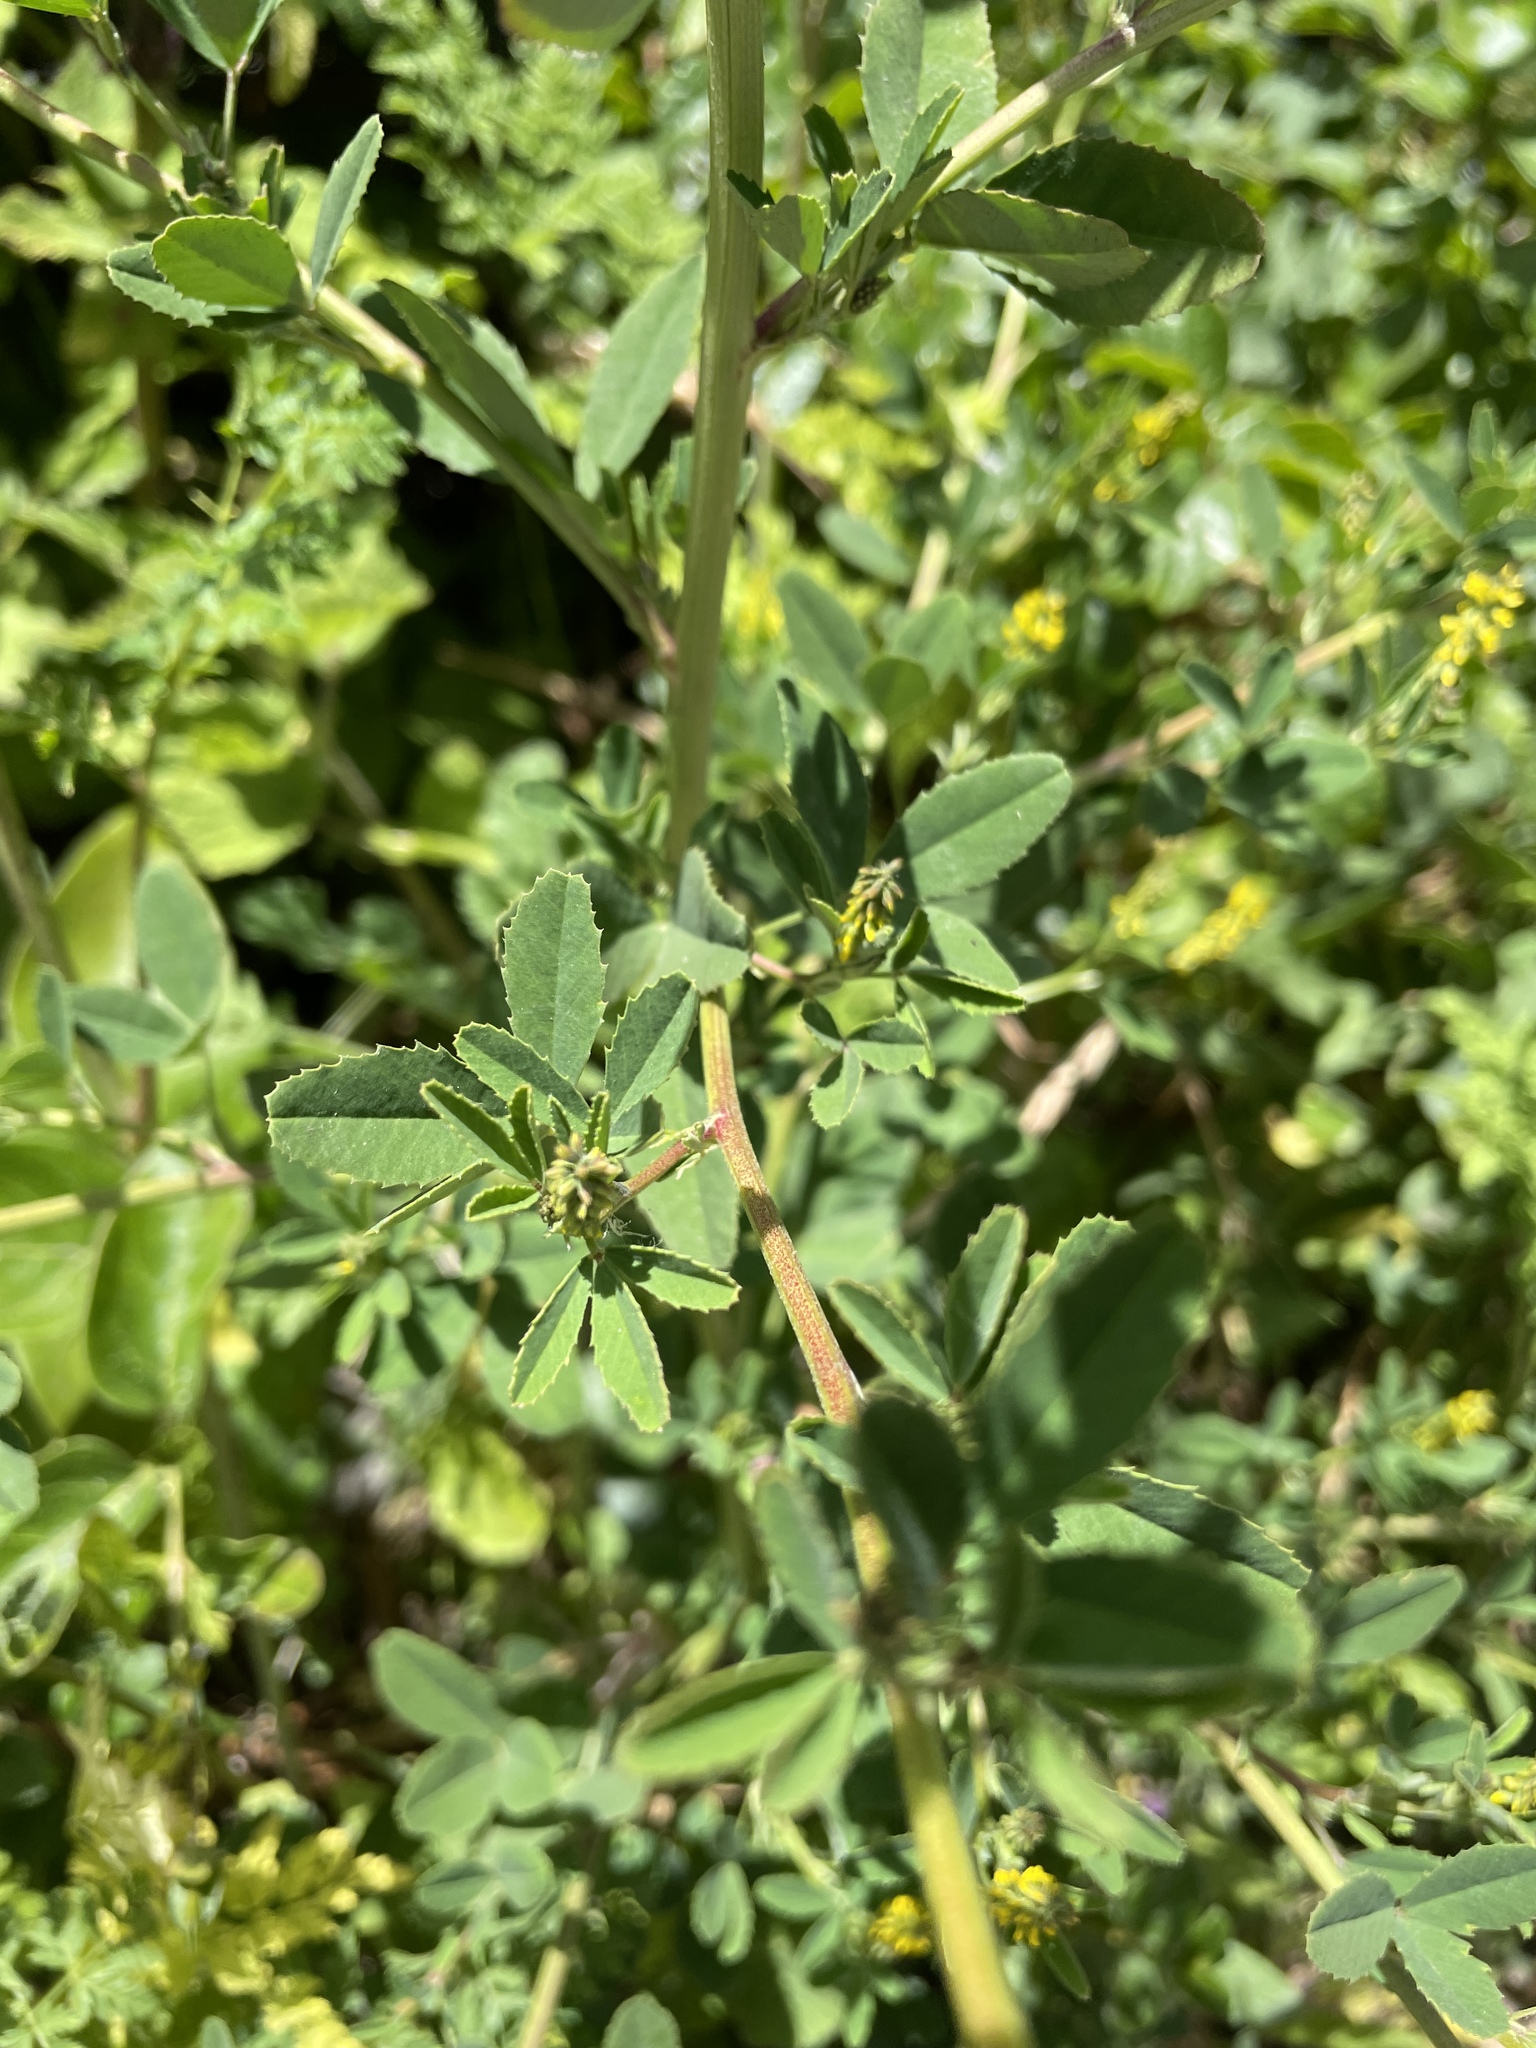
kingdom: Plantae
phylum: Tracheophyta
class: Magnoliopsida
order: Fabales
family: Fabaceae
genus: Melilotus
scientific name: Melilotus indicus
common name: Small melilot
